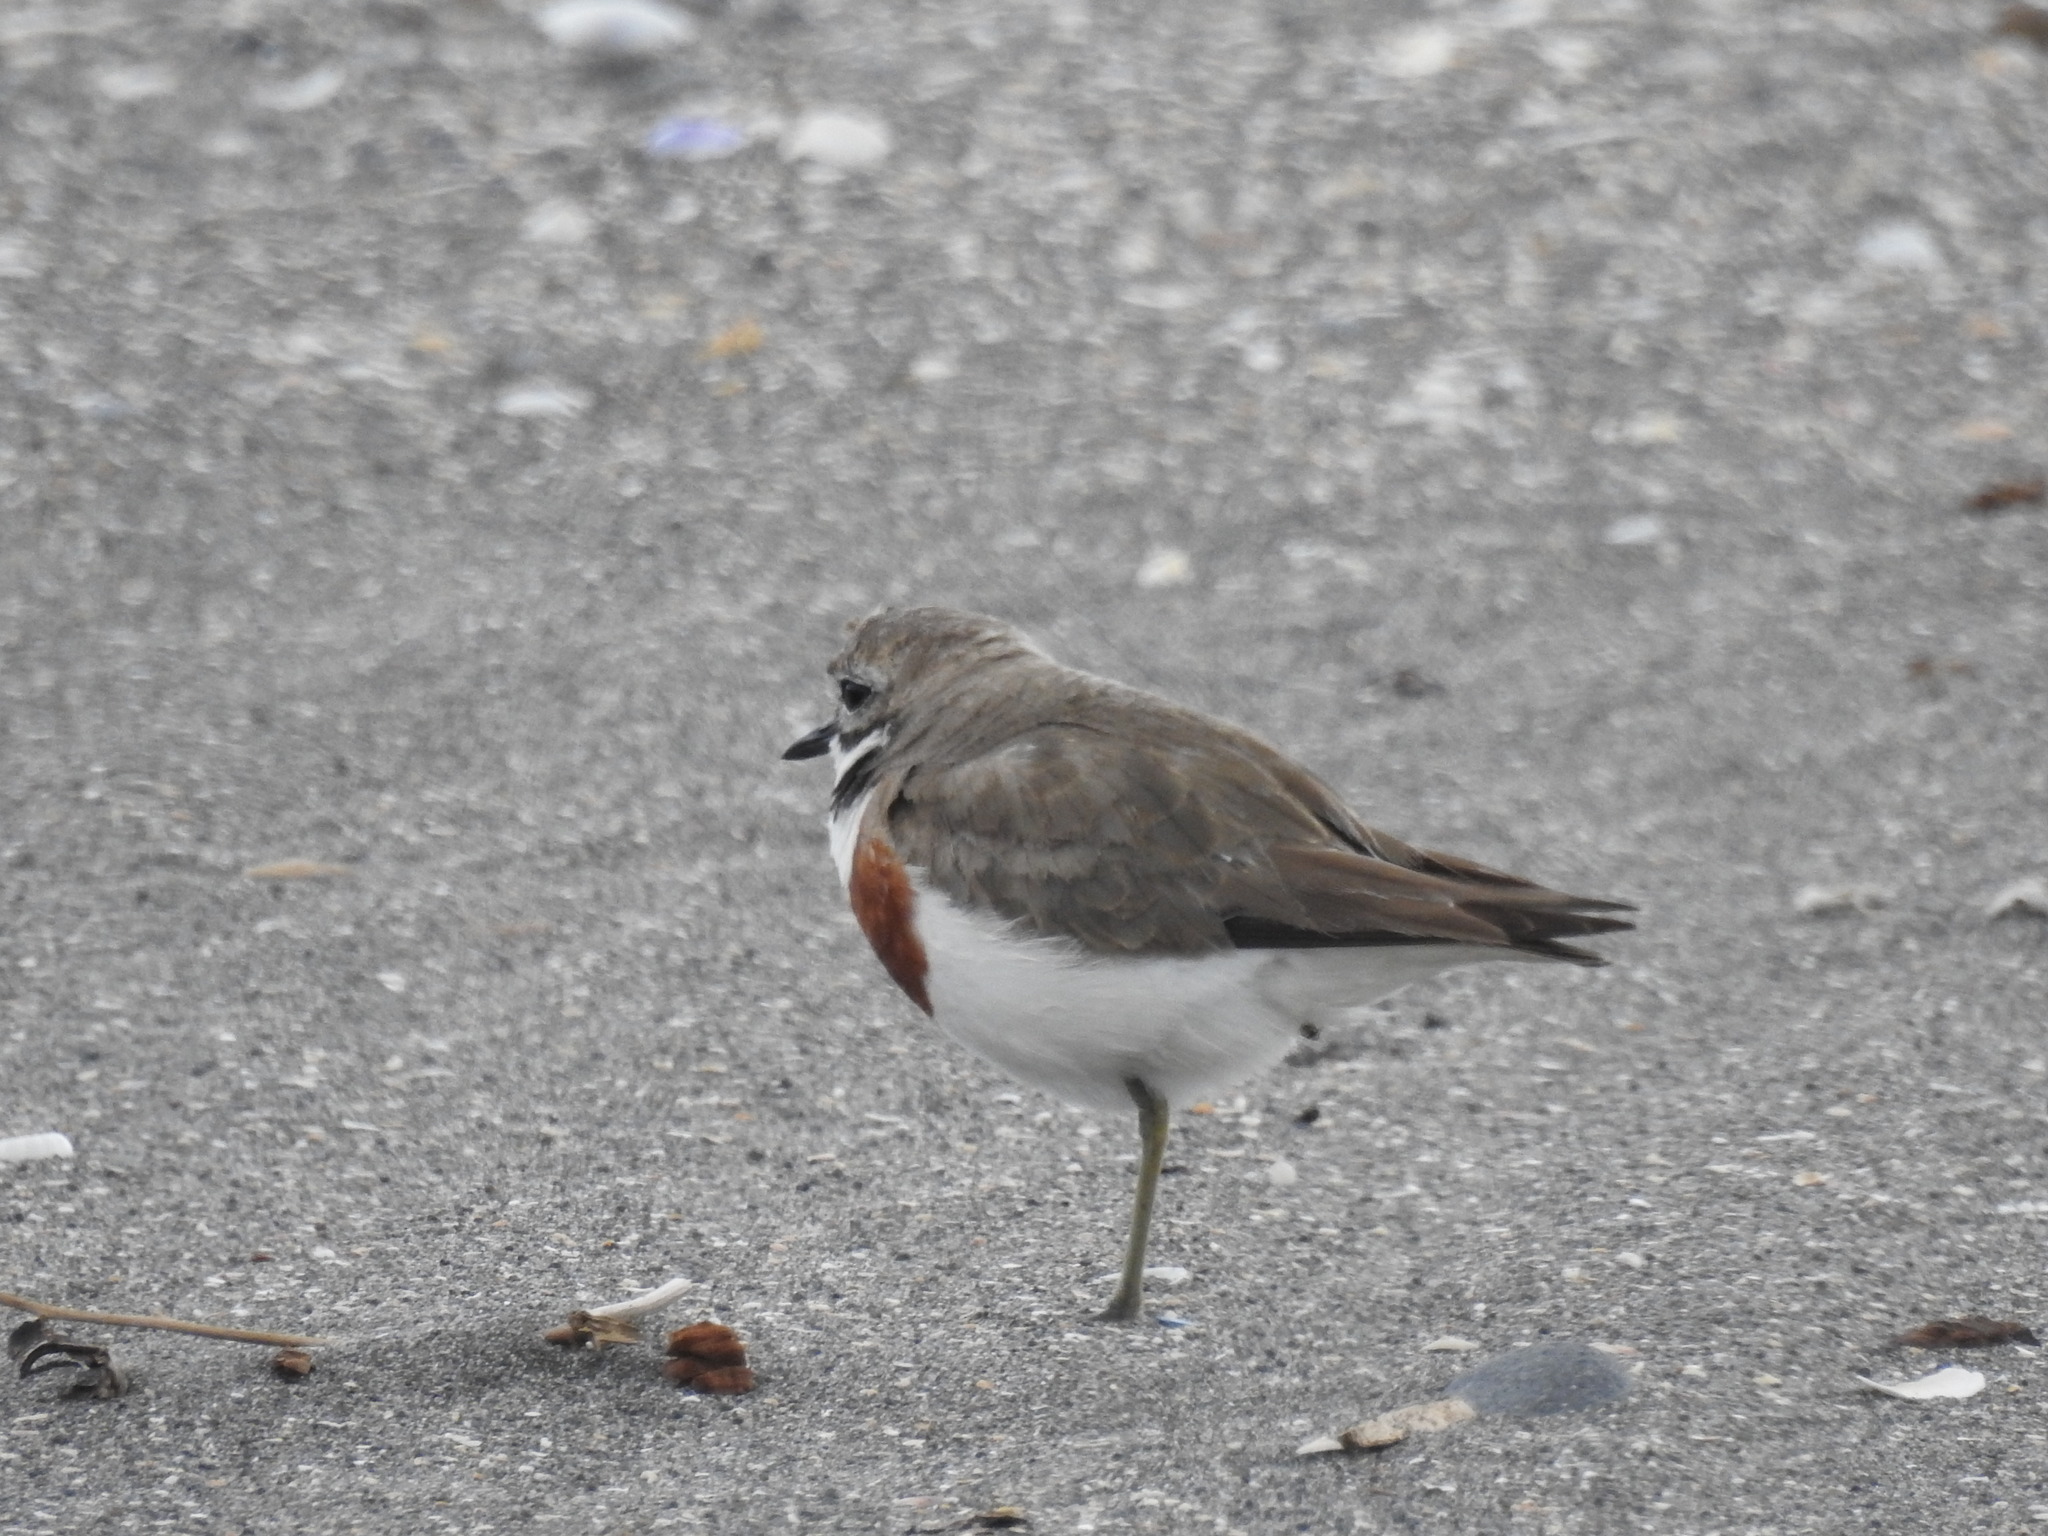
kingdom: Animalia
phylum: Chordata
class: Aves
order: Charadriiformes
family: Charadriidae
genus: Anarhynchus
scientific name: Anarhynchus
